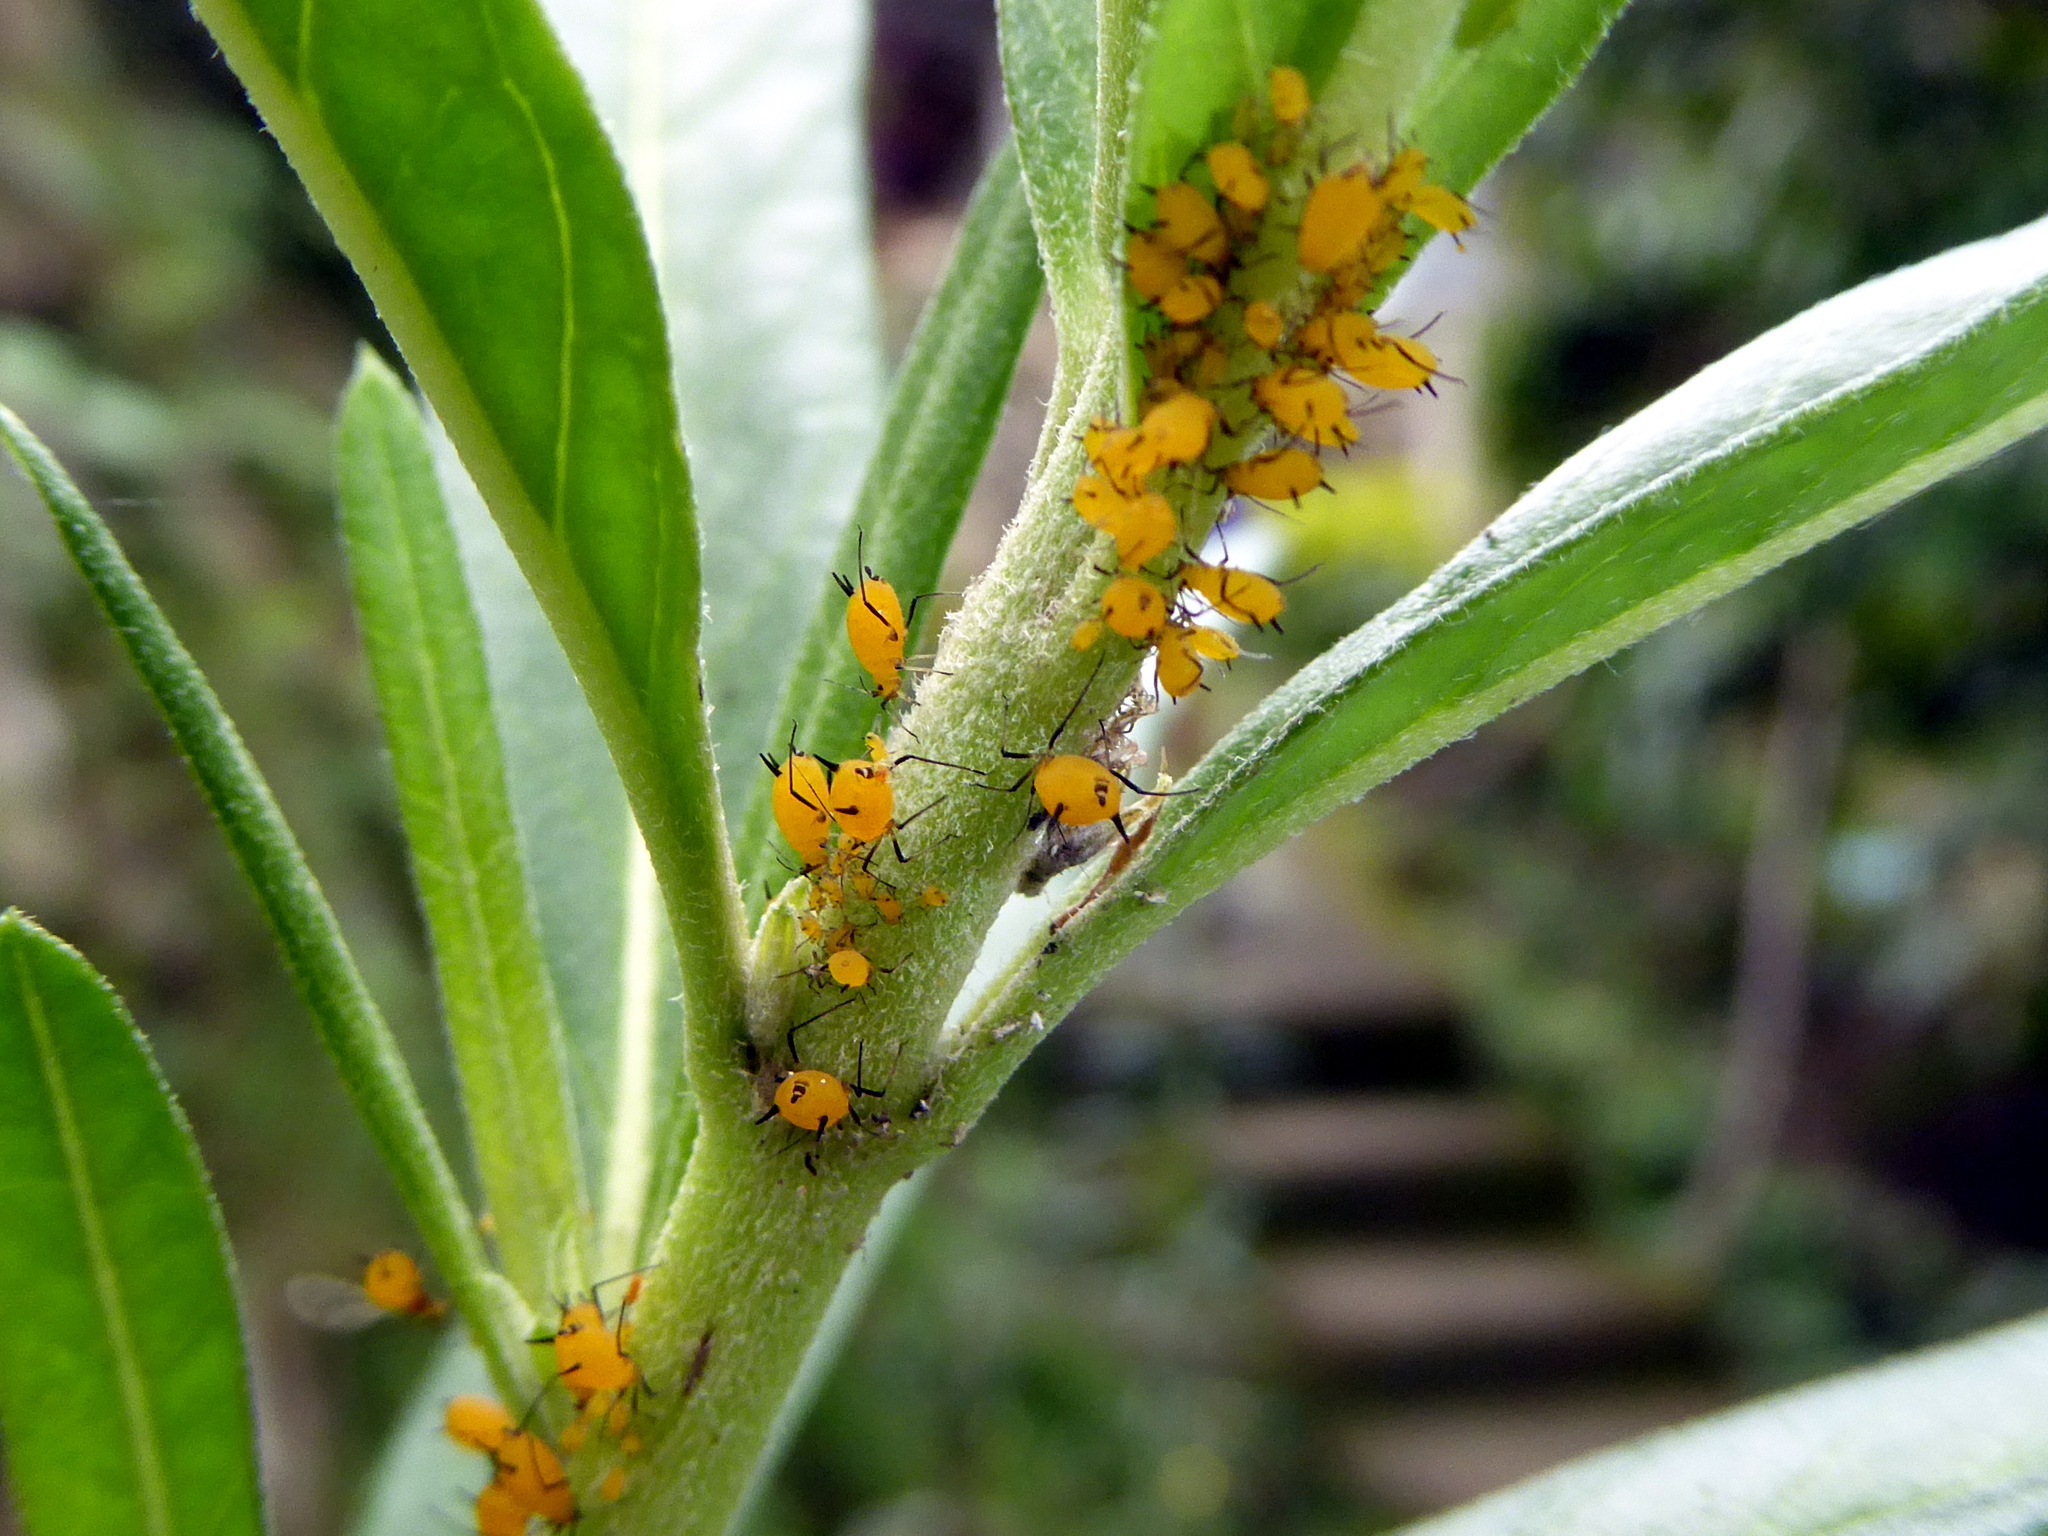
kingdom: Animalia
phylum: Arthropoda
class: Insecta
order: Hemiptera
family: Aphididae
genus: Aphis
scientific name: Aphis nerii
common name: Oleander aphid
